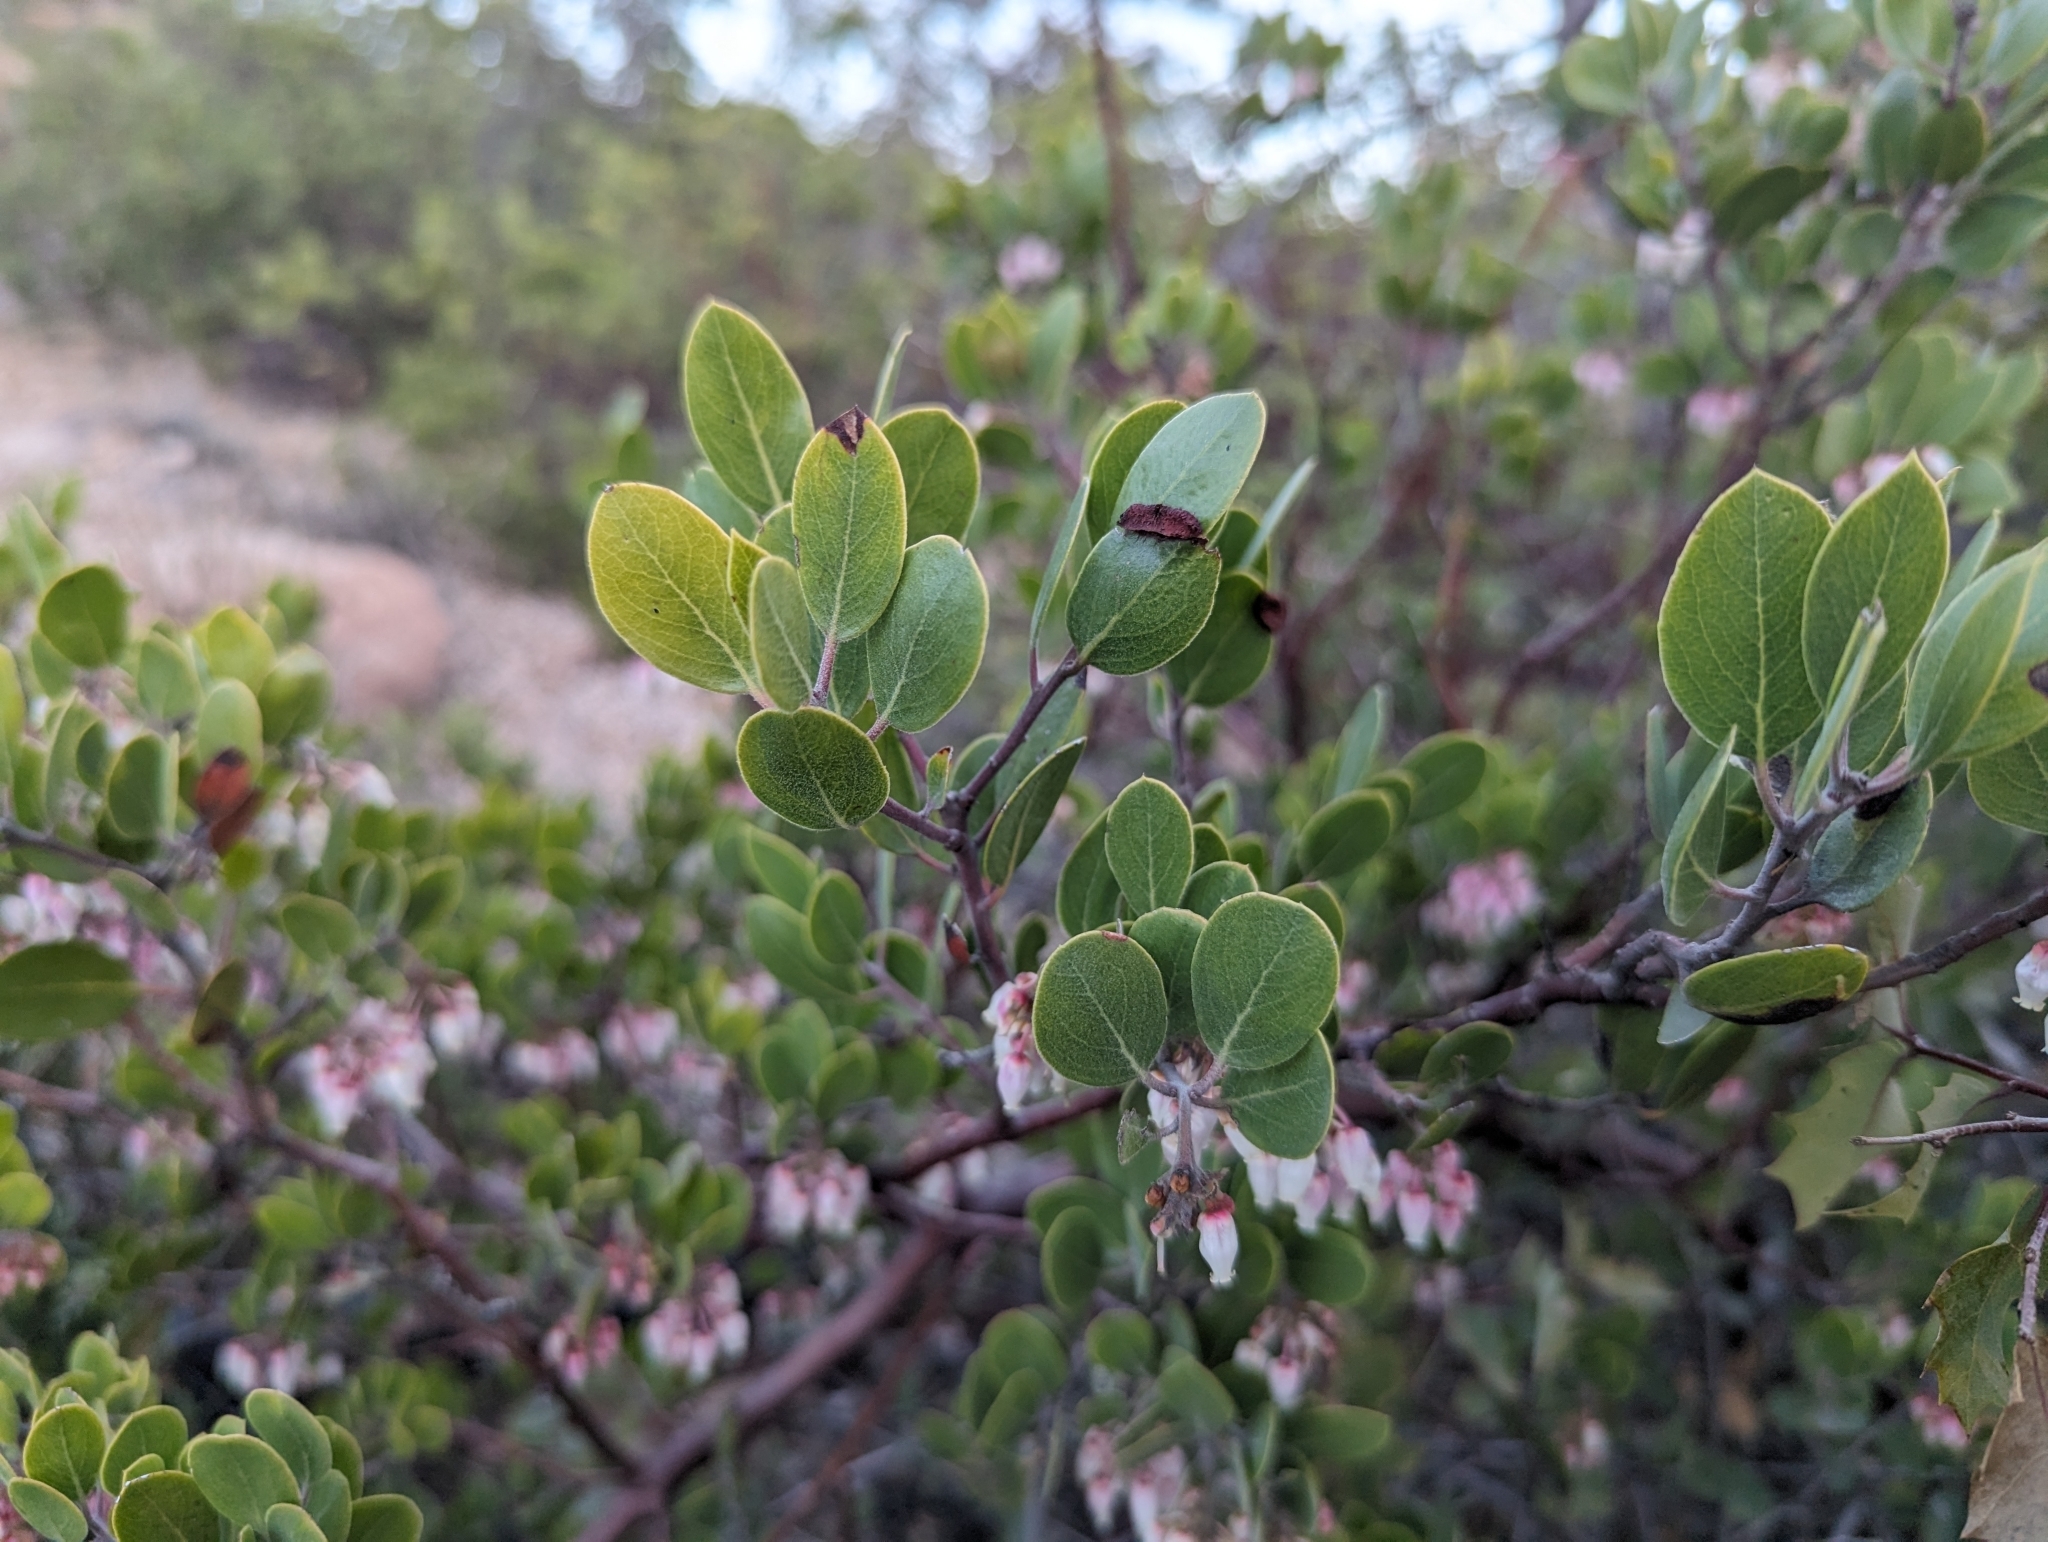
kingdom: Plantae
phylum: Tracheophyta
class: Magnoliopsida
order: Ericales
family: Ericaceae
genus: Arctostaphylos
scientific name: Arctostaphylos pungens
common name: Mexican manzanita
